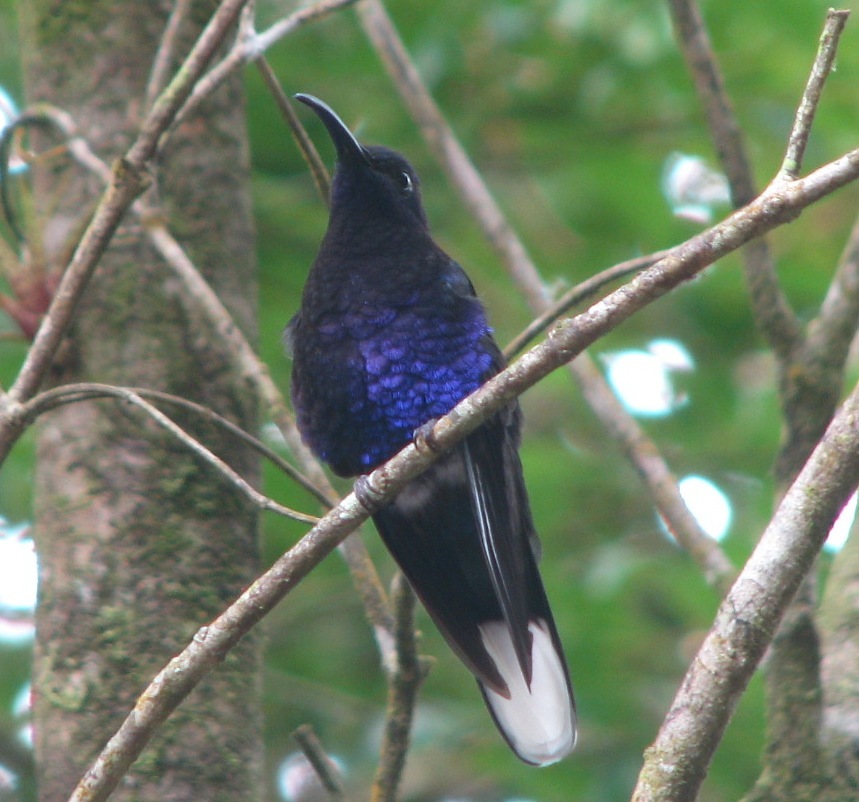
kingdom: Animalia
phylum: Chordata
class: Aves
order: Apodiformes
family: Trochilidae
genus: Campylopterus
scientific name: Campylopterus hemileucurus
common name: Violet sabrewing
